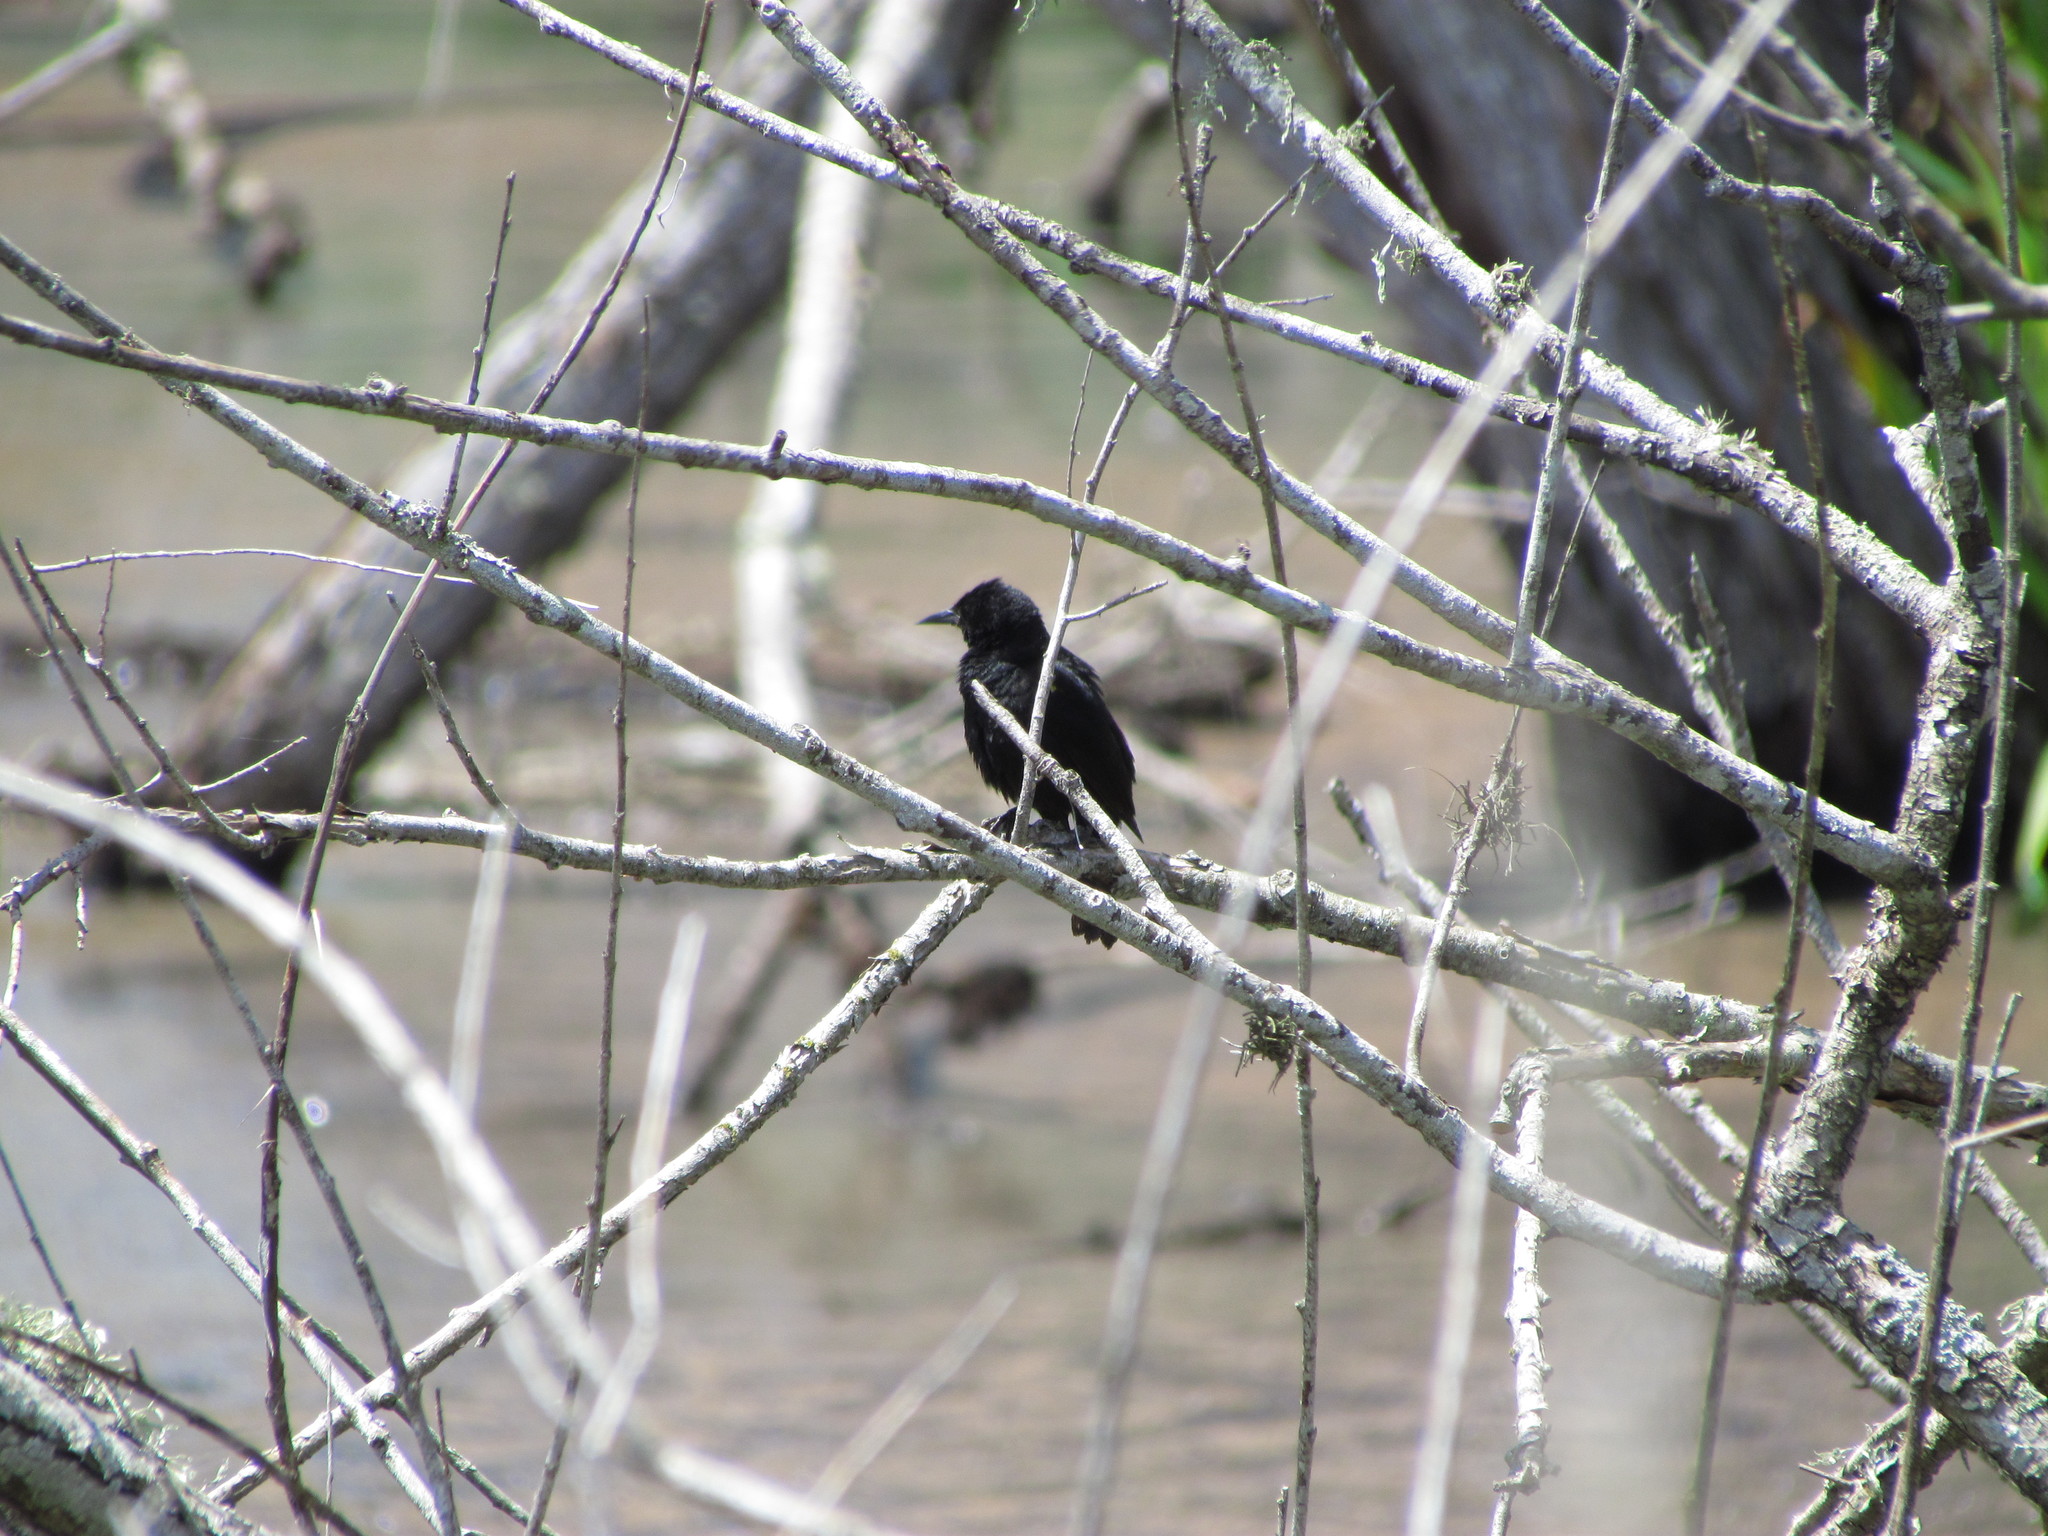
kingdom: Animalia
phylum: Chordata
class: Aves
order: Passeriformes
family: Icteridae
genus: Agelasticus
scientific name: Agelasticus thilius
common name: Yellow-winged blackbird
